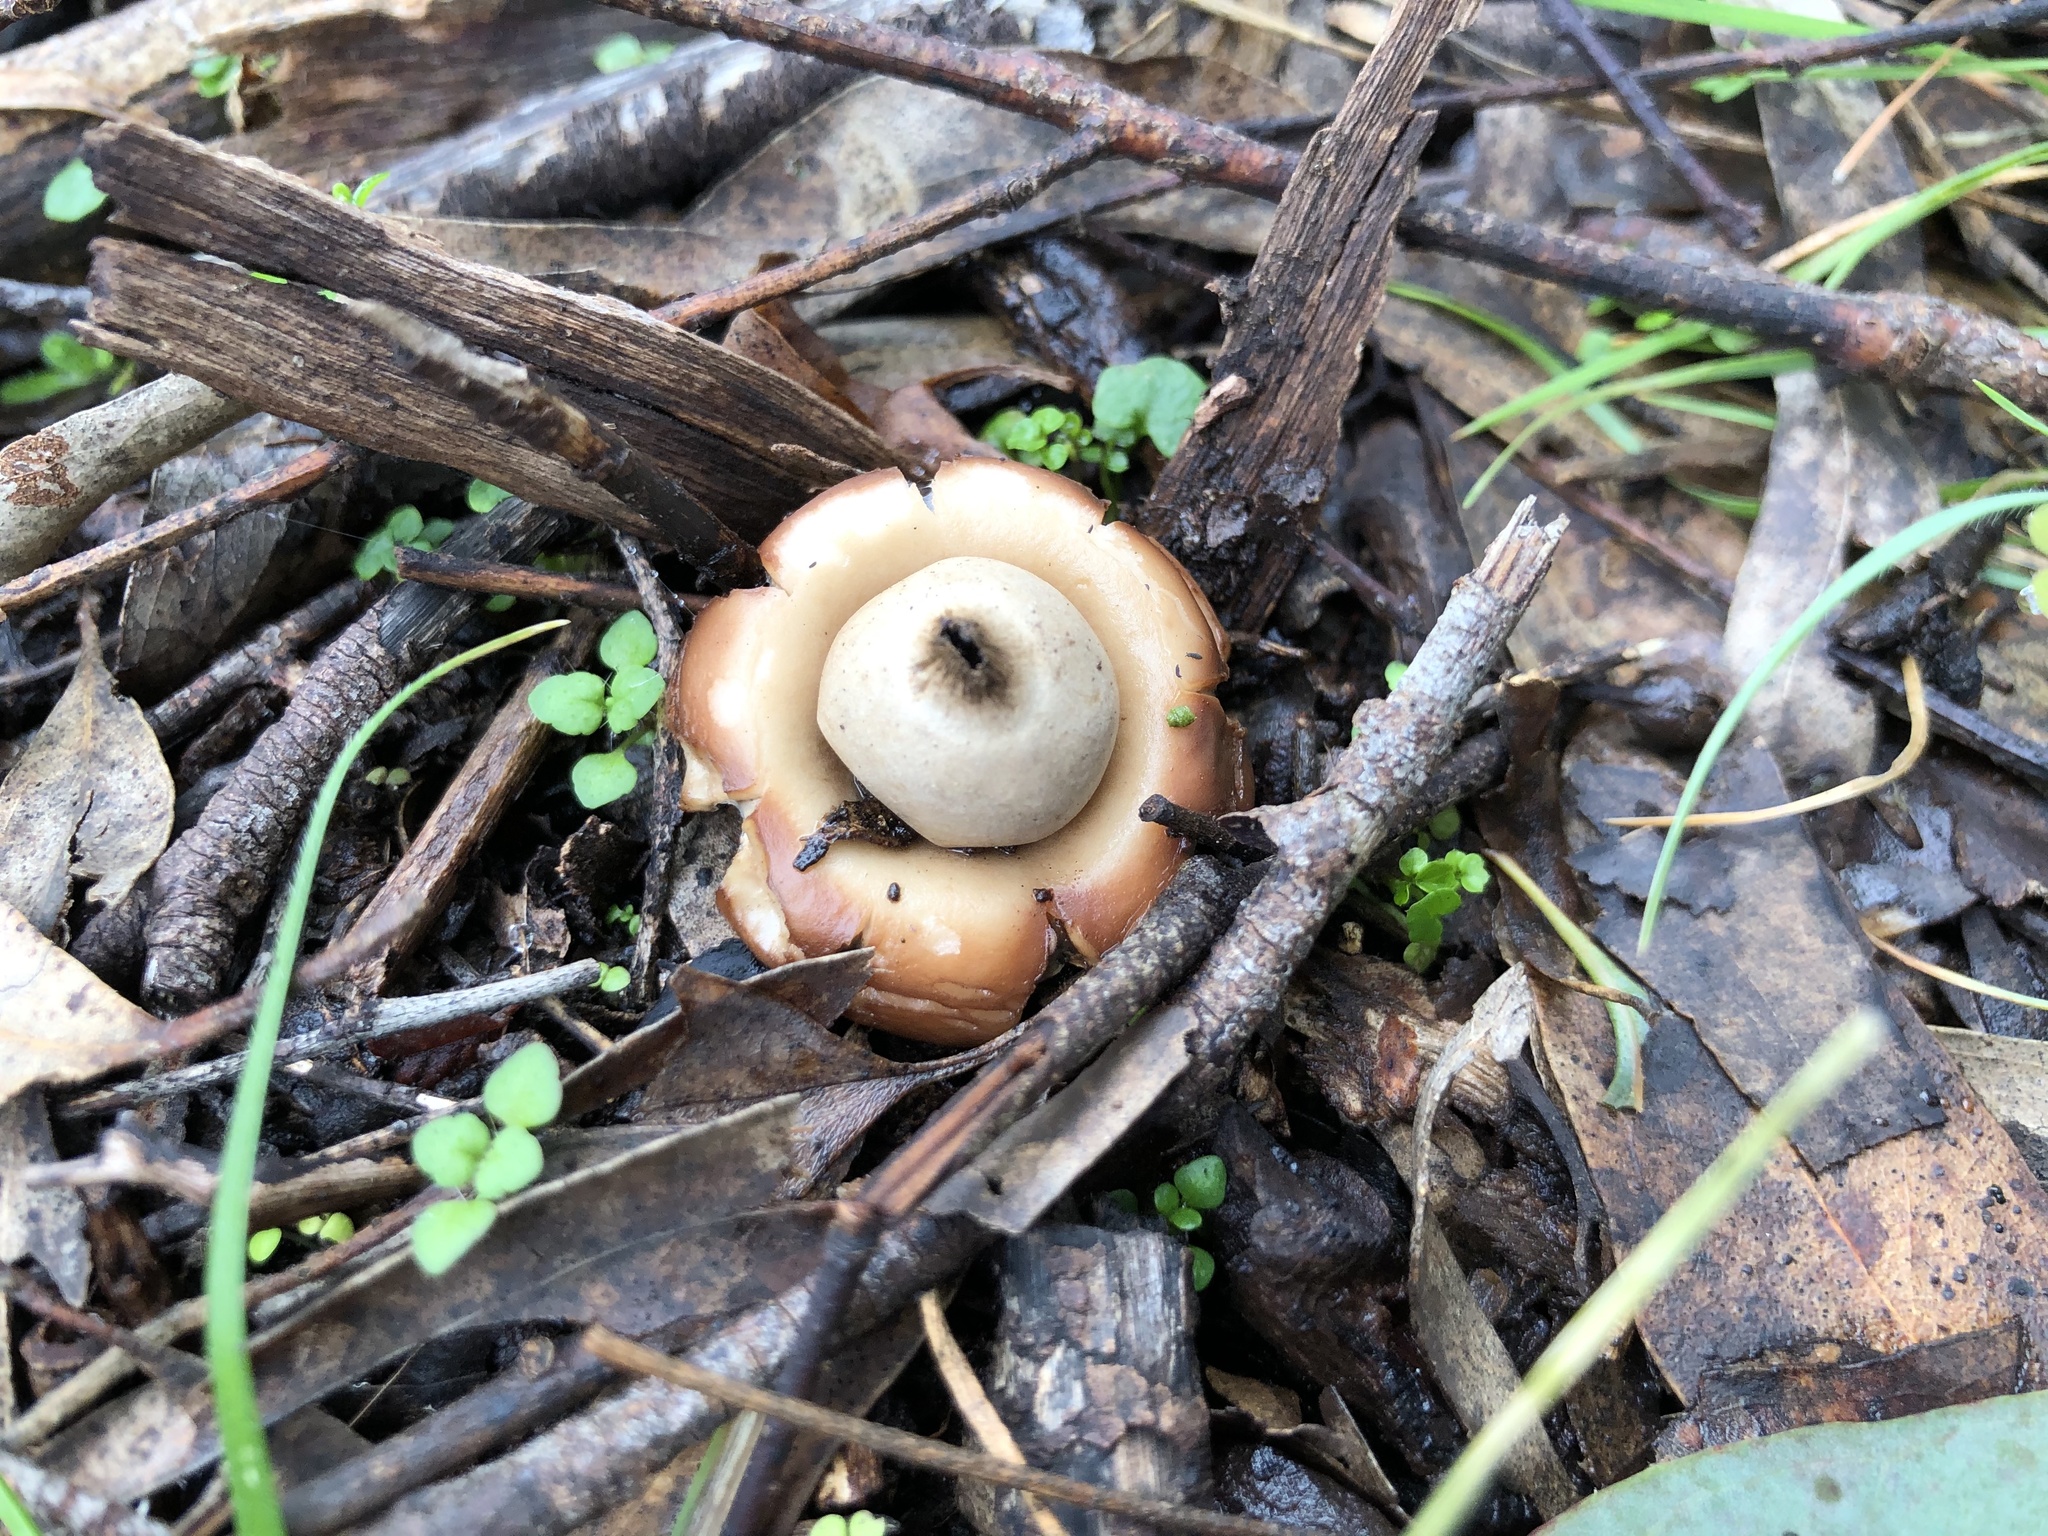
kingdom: Fungi
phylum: Basidiomycota
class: Agaricomycetes
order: Geastrales
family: Geastraceae
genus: Geastrum
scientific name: Geastrum triplex
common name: Collared earthstar
